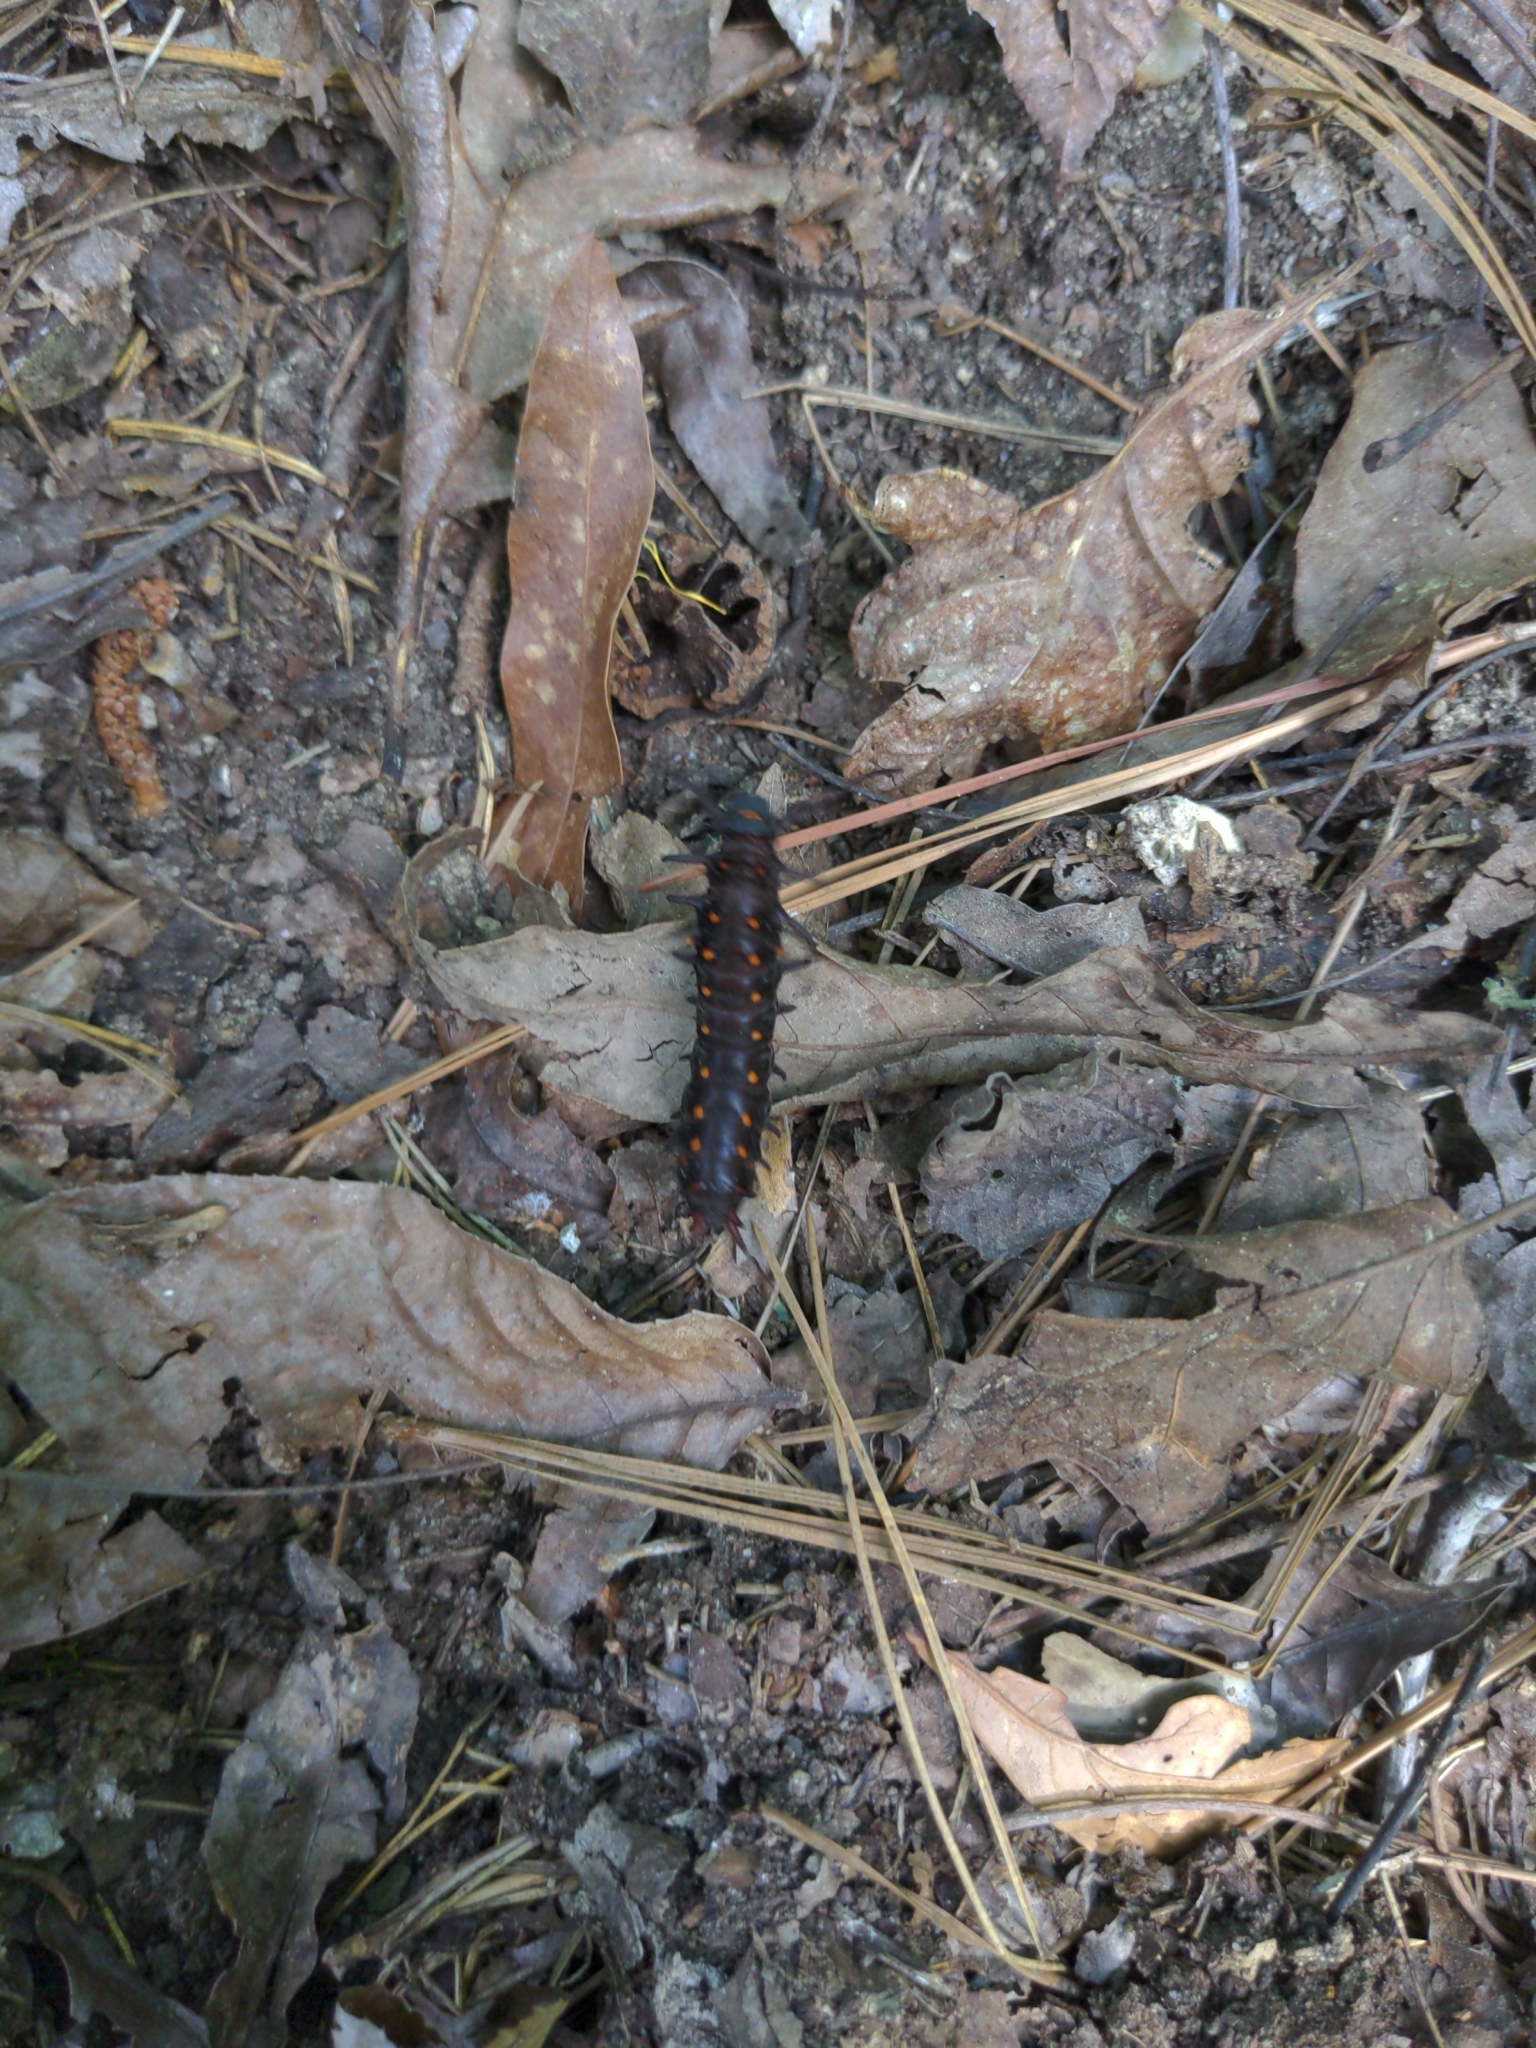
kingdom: Animalia
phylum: Arthropoda
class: Insecta
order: Lepidoptera
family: Papilionidae
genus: Battus
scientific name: Battus philenor
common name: Pipevine swallowtail
